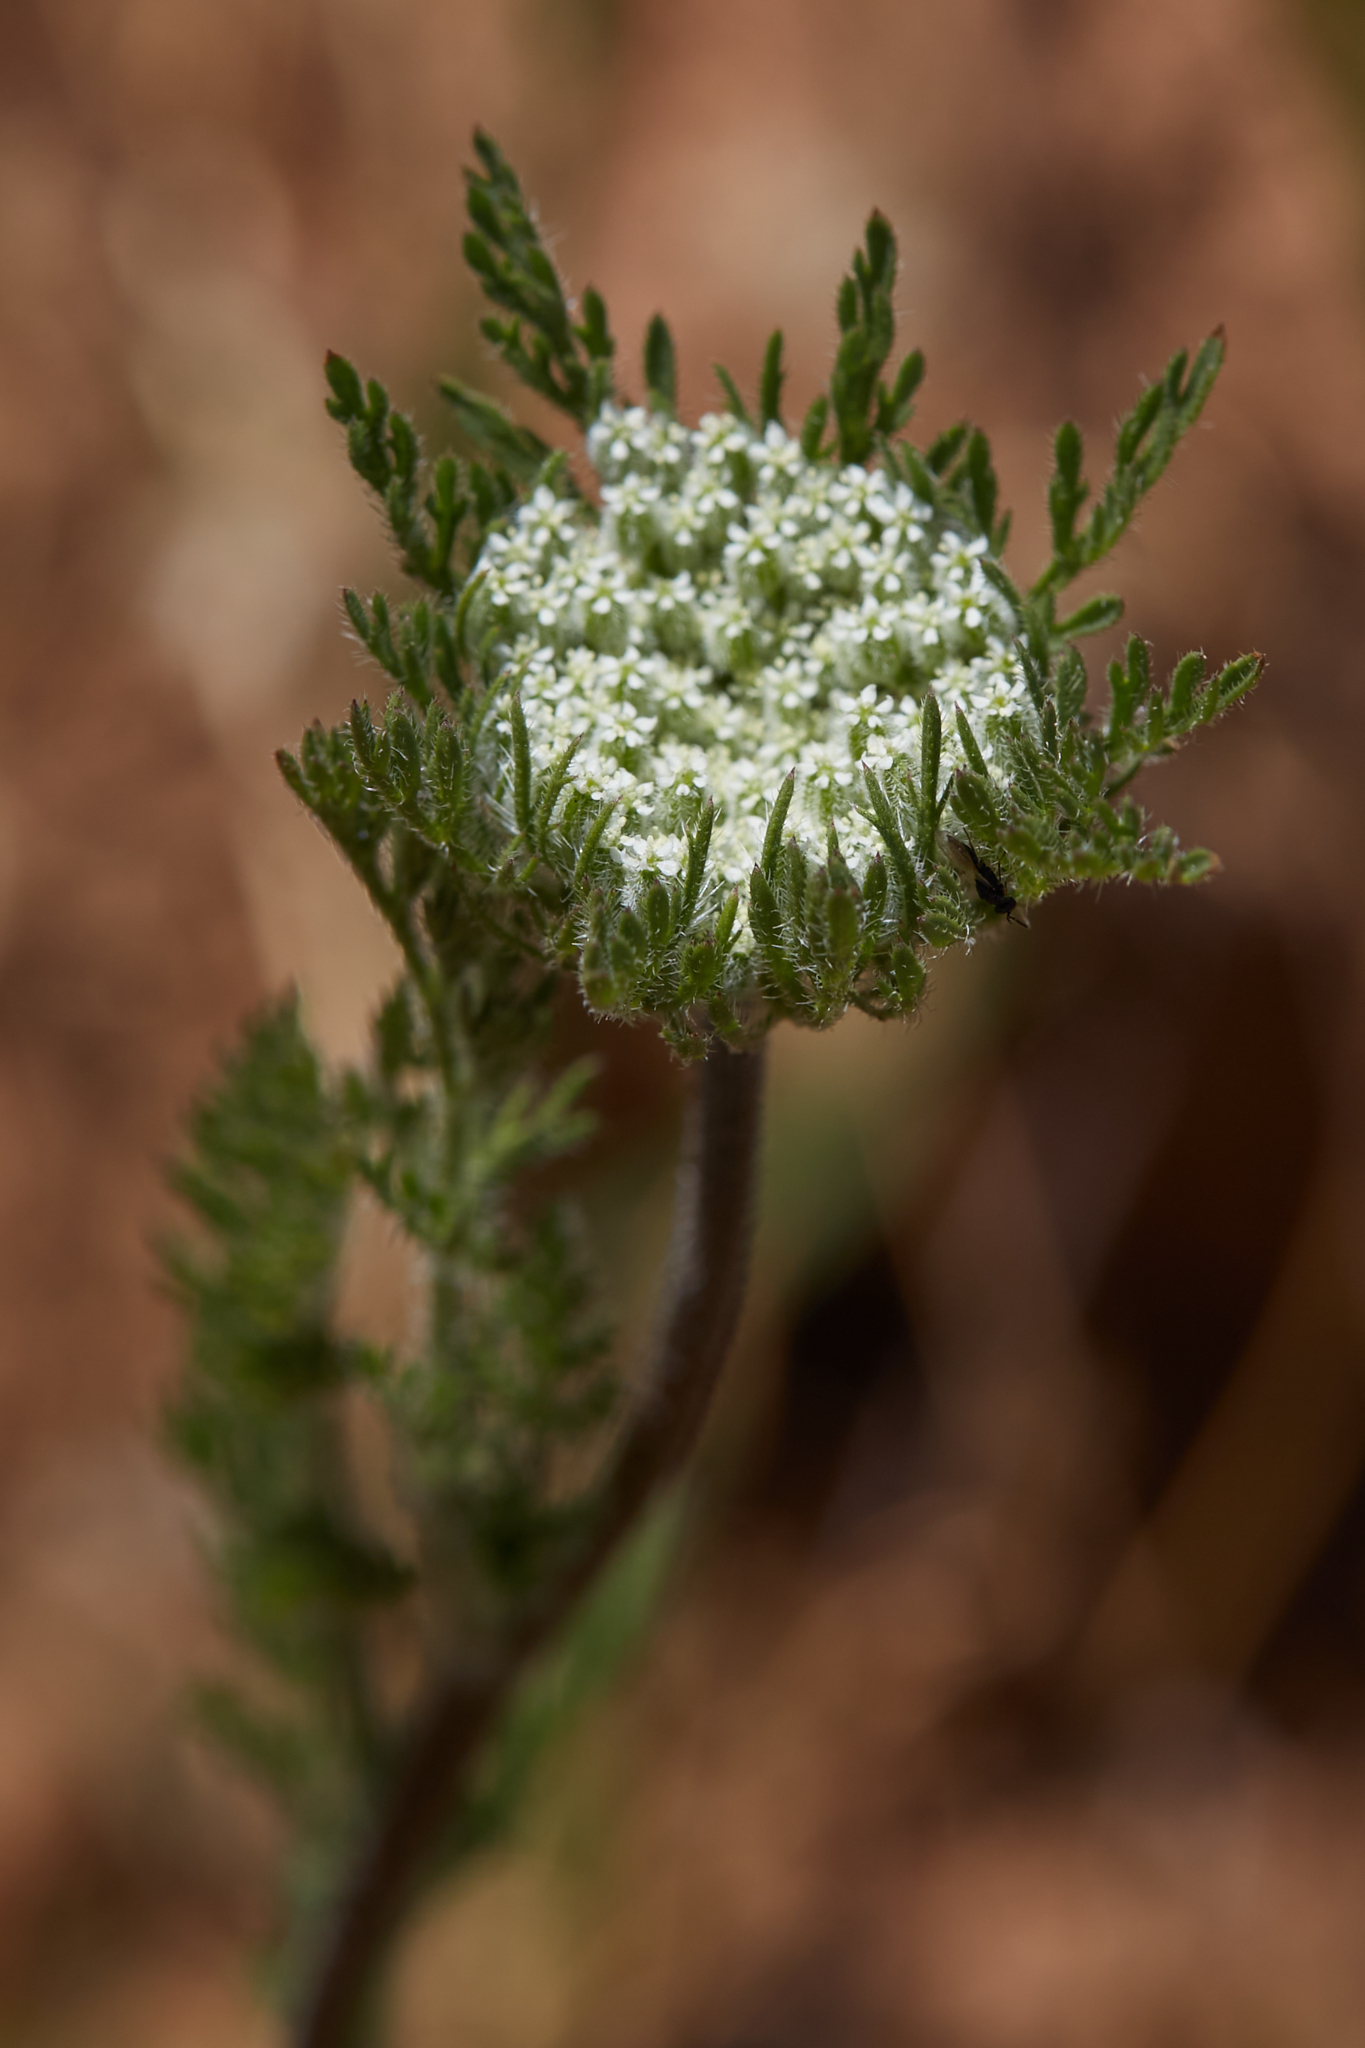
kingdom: Plantae
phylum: Tracheophyta
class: Magnoliopsida
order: Apiales
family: Apiaceae
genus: Daucus
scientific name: Daucus pusillus
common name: Southwest wild carrot
